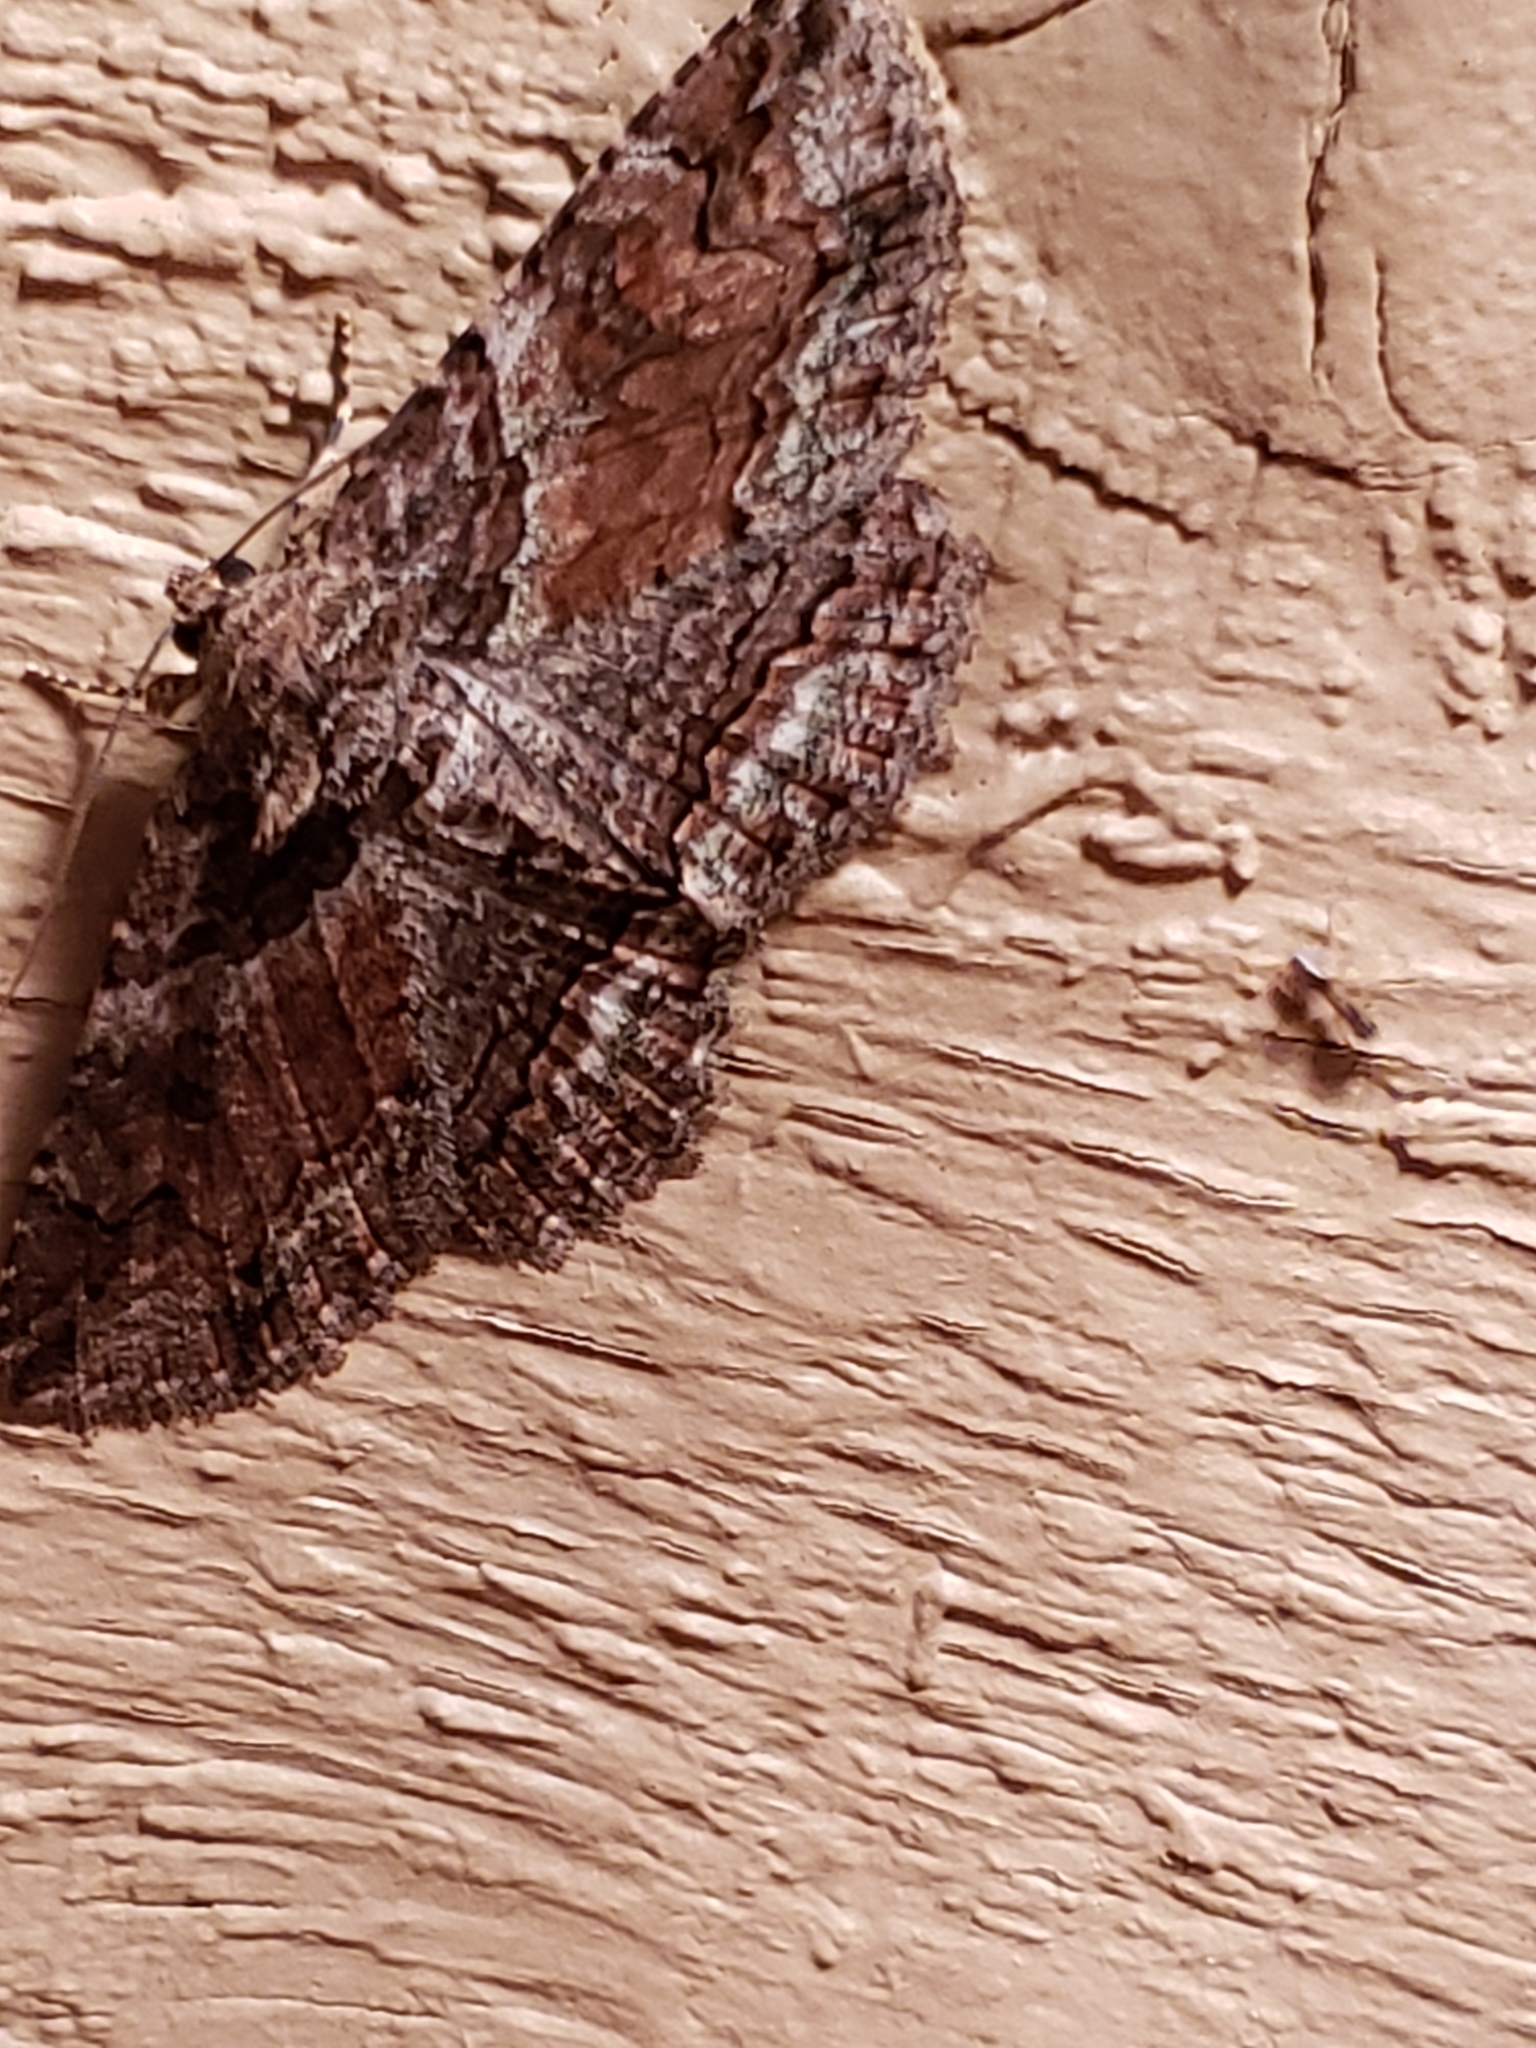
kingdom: Animalia
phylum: Arthropoda
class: Insecta
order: Lepidoptera
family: Erebidae
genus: Zale
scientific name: Zale minerea
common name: Colorful zale moth
